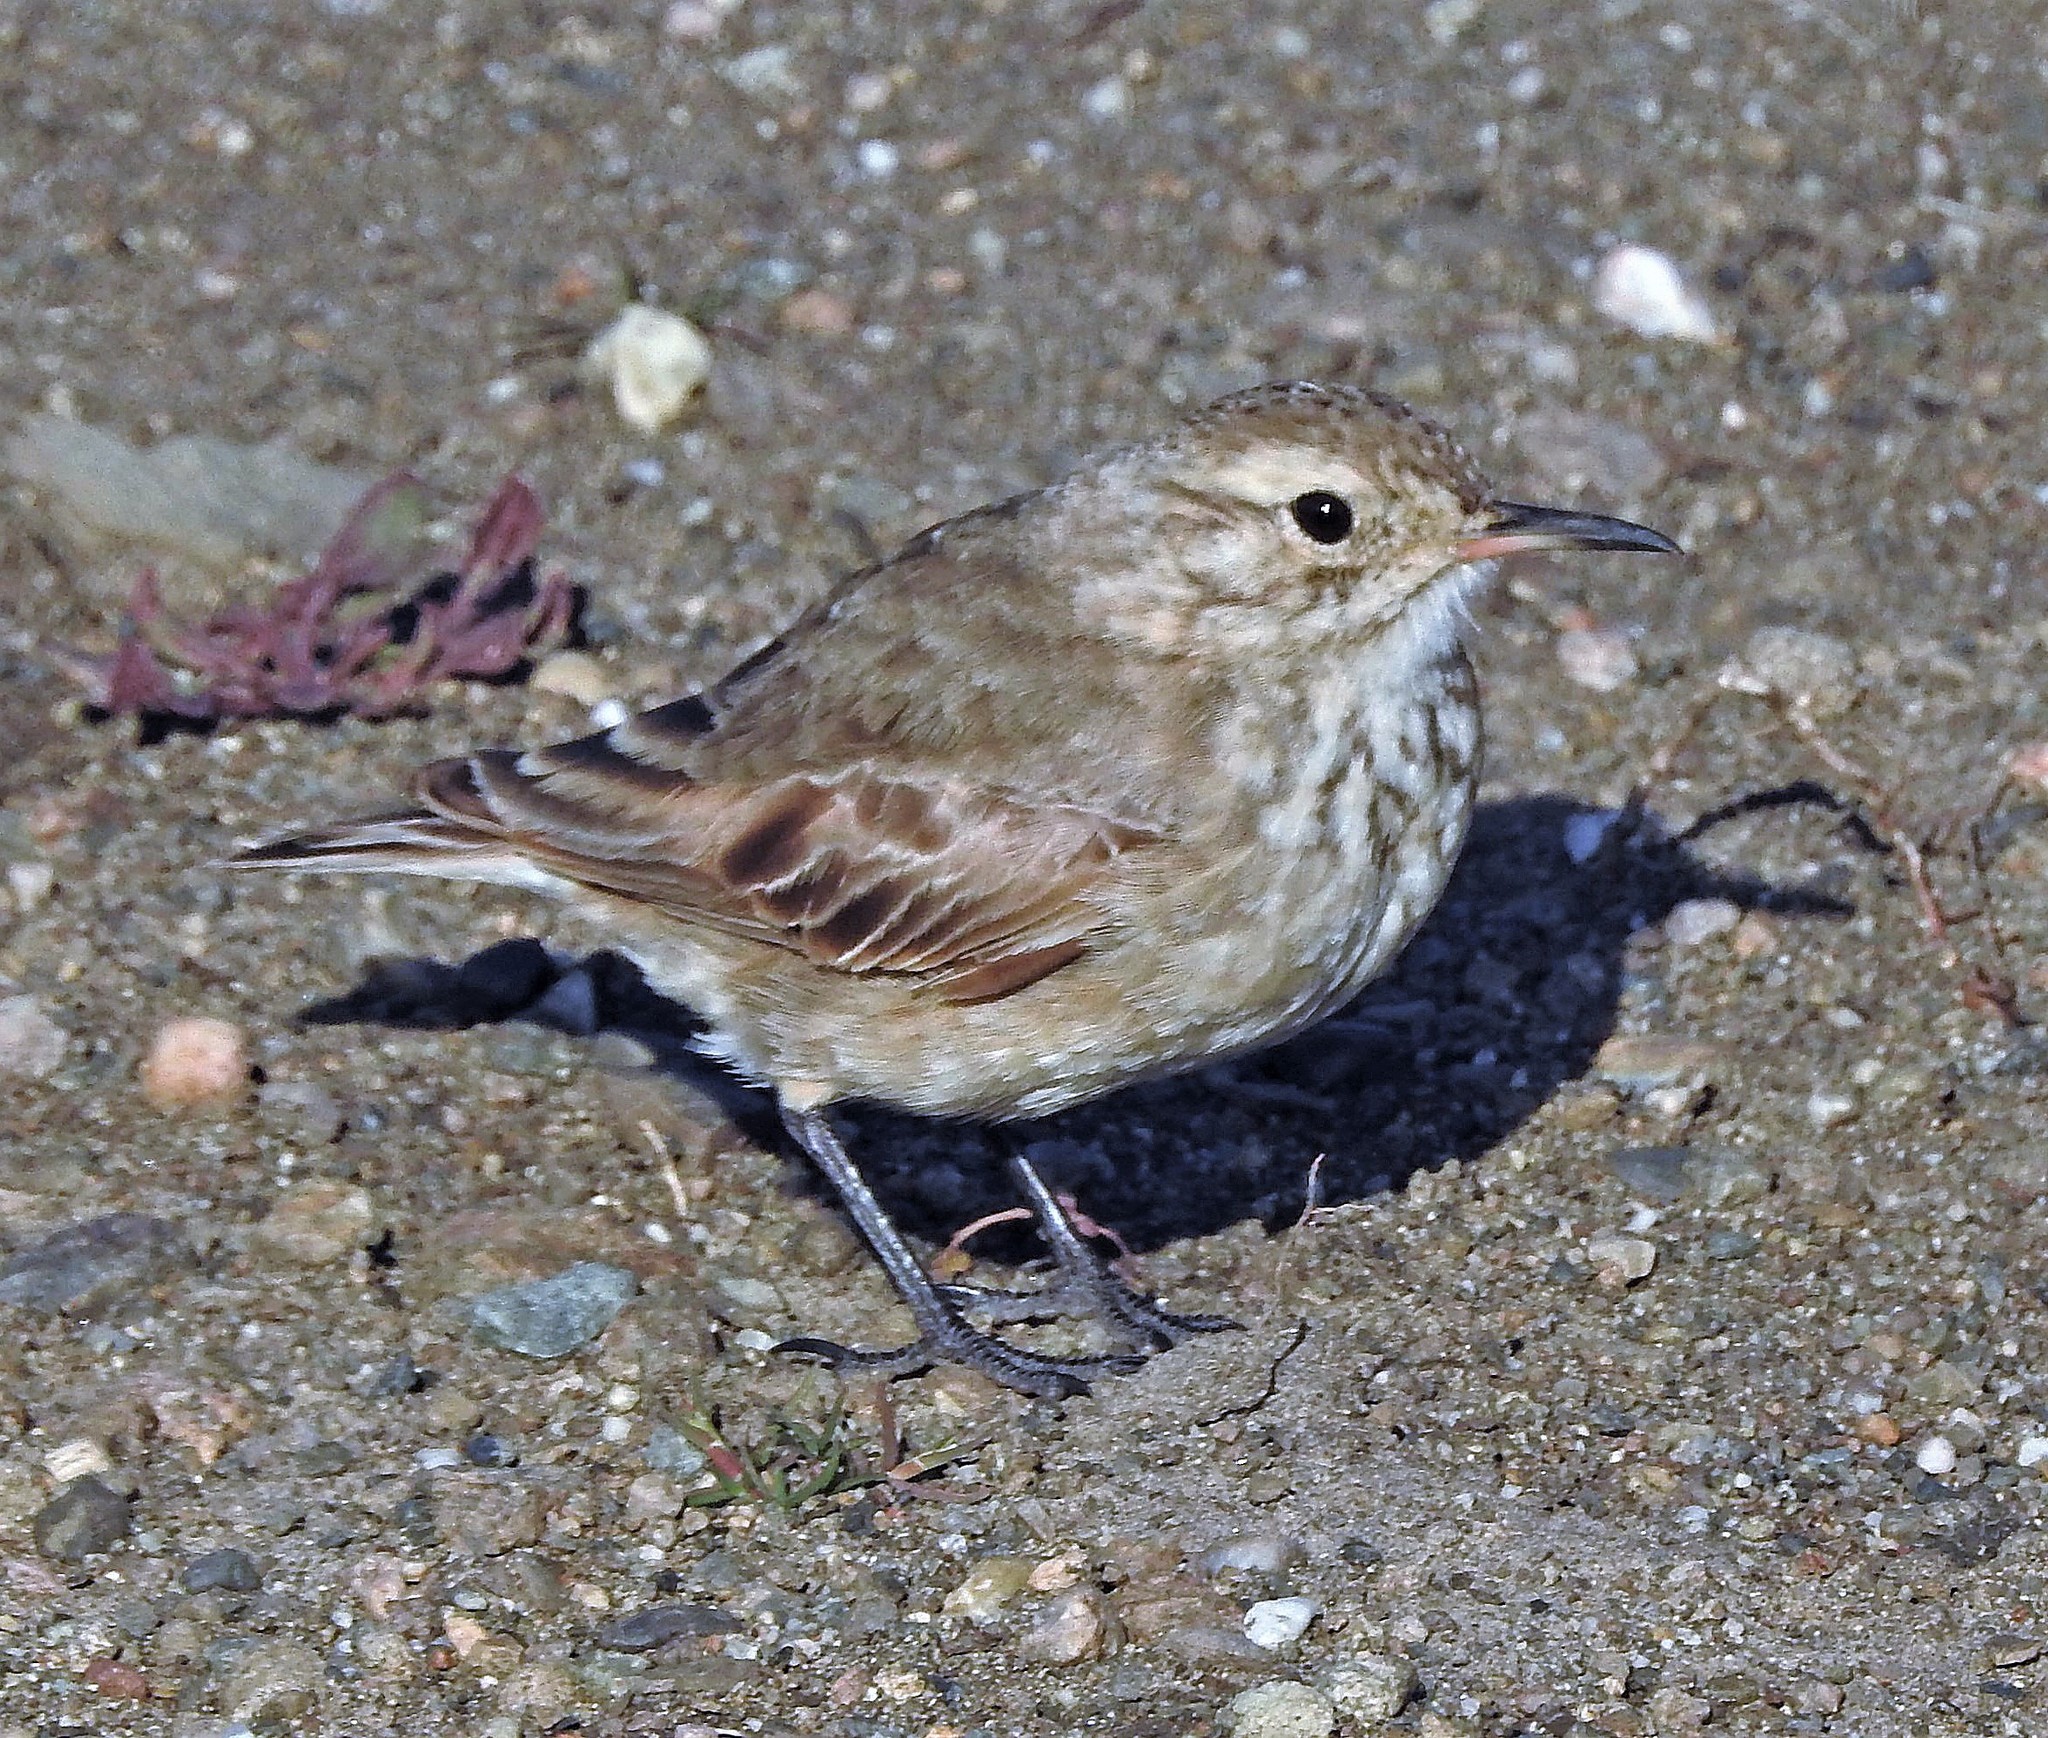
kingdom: Animalia
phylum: Chordata
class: Aves
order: Passeriformes
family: Furnariidae
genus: Geositta
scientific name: Geositta cunicularia
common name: Common miner
